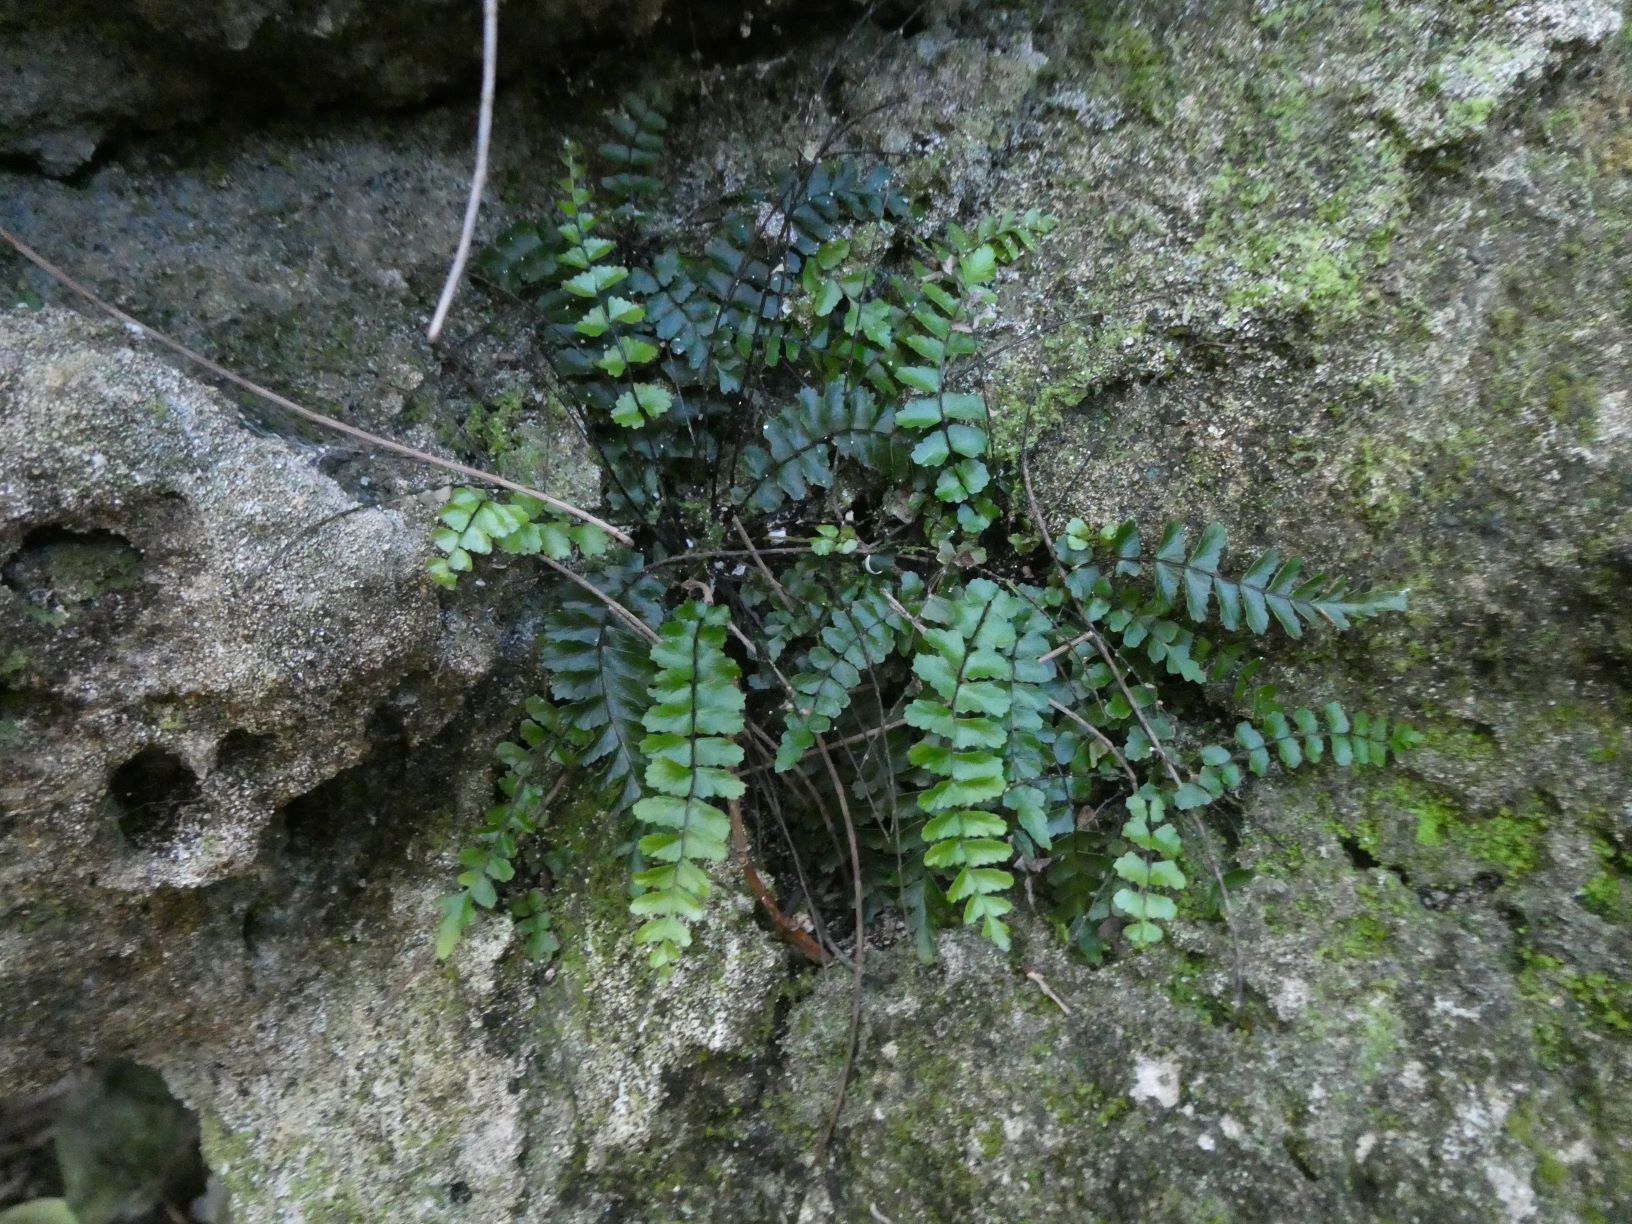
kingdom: Plantae
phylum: Tracheophyta
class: Polypodiopsida
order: Polypodiales
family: Aspleniaceae
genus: Asplenium
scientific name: Asplenium heterochroum
